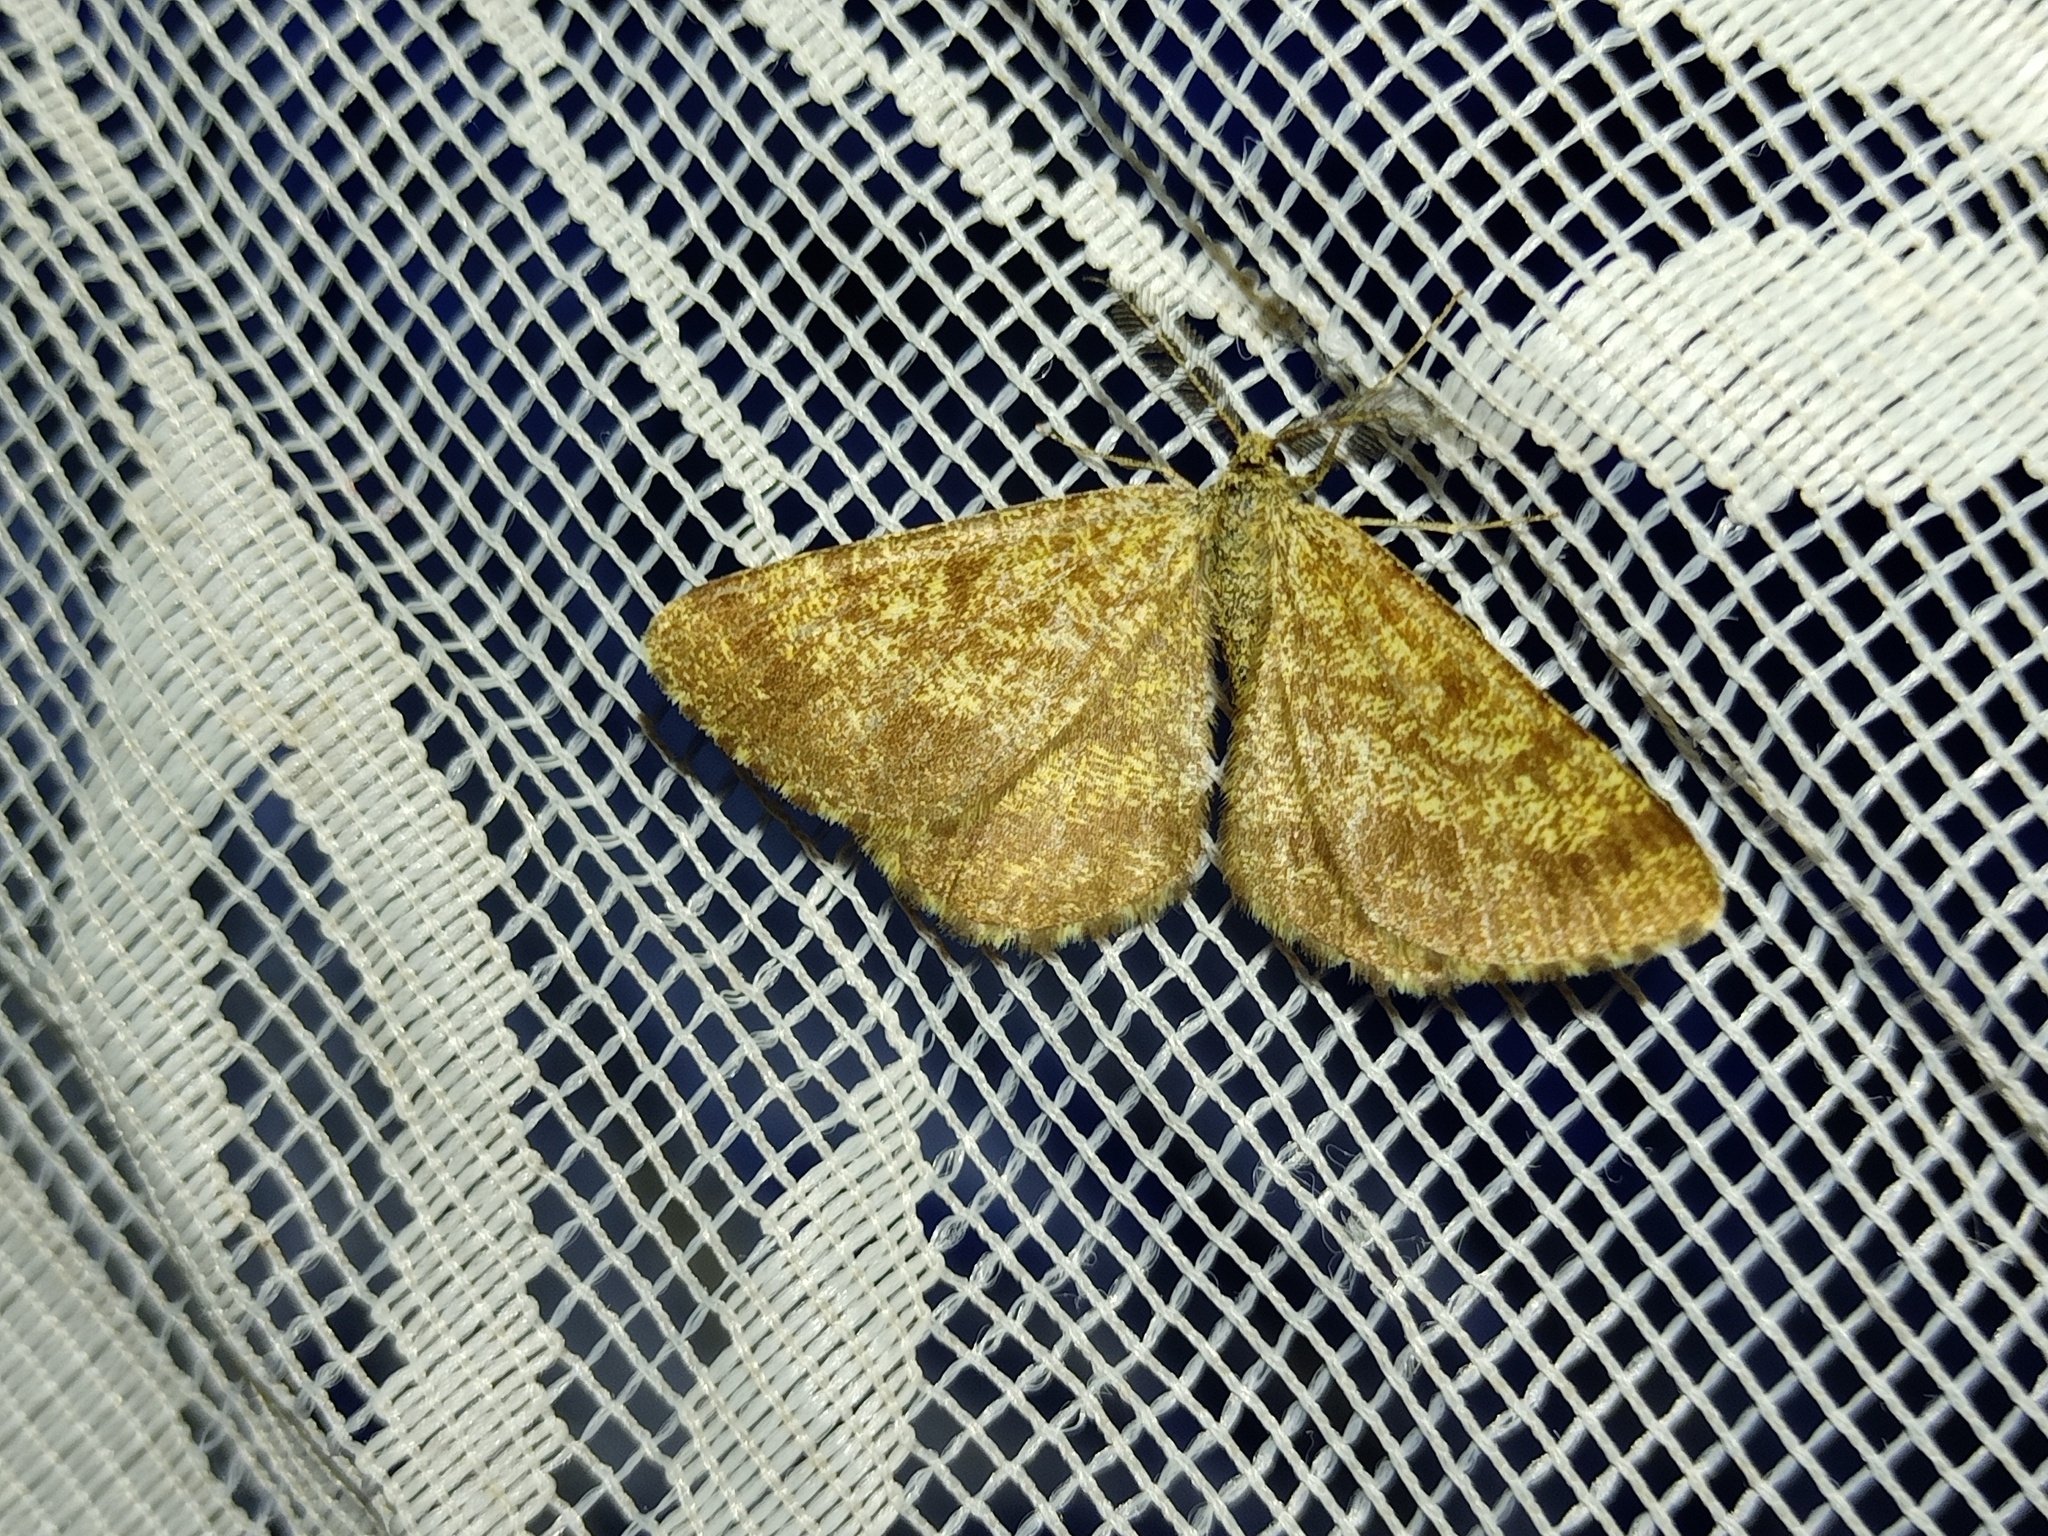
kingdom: Animalia
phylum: Arthropoda
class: Insecta
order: Lepidoptera
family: Geometridae
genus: Ematurga
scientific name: Ematurga atomaria
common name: Common heath
